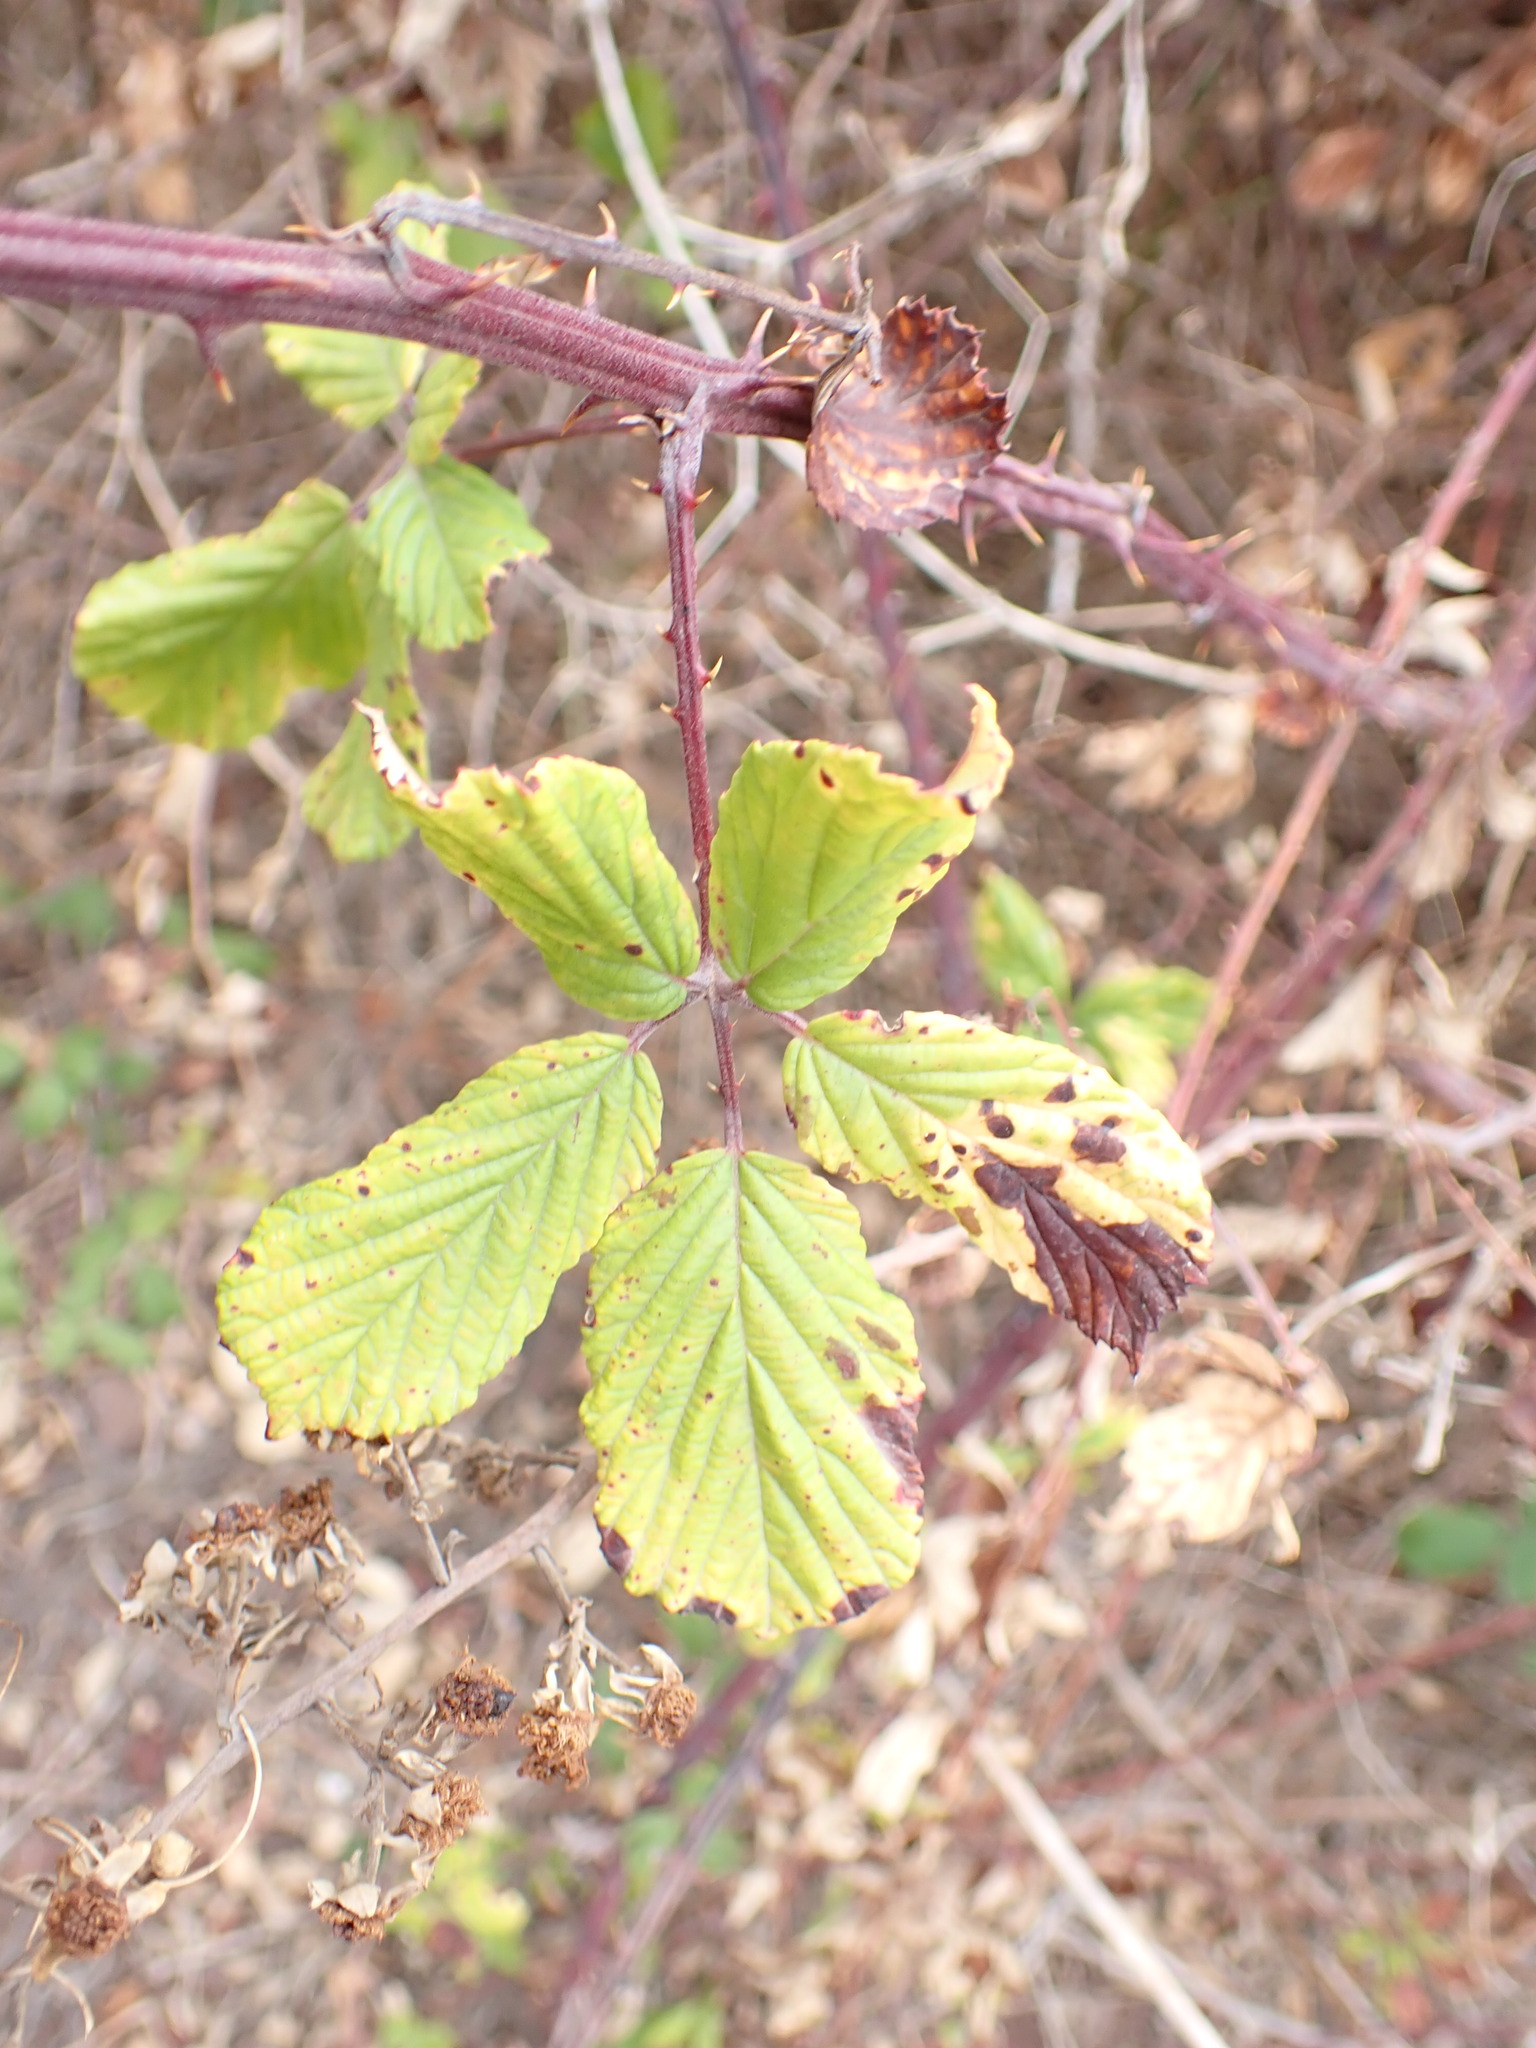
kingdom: Plantae
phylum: Tracheophyta
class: Magnoliopsida
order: Rosales
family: Rosaceae
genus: Rubus
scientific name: Rubus ulmifolius
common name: Elmleaf blackberry
